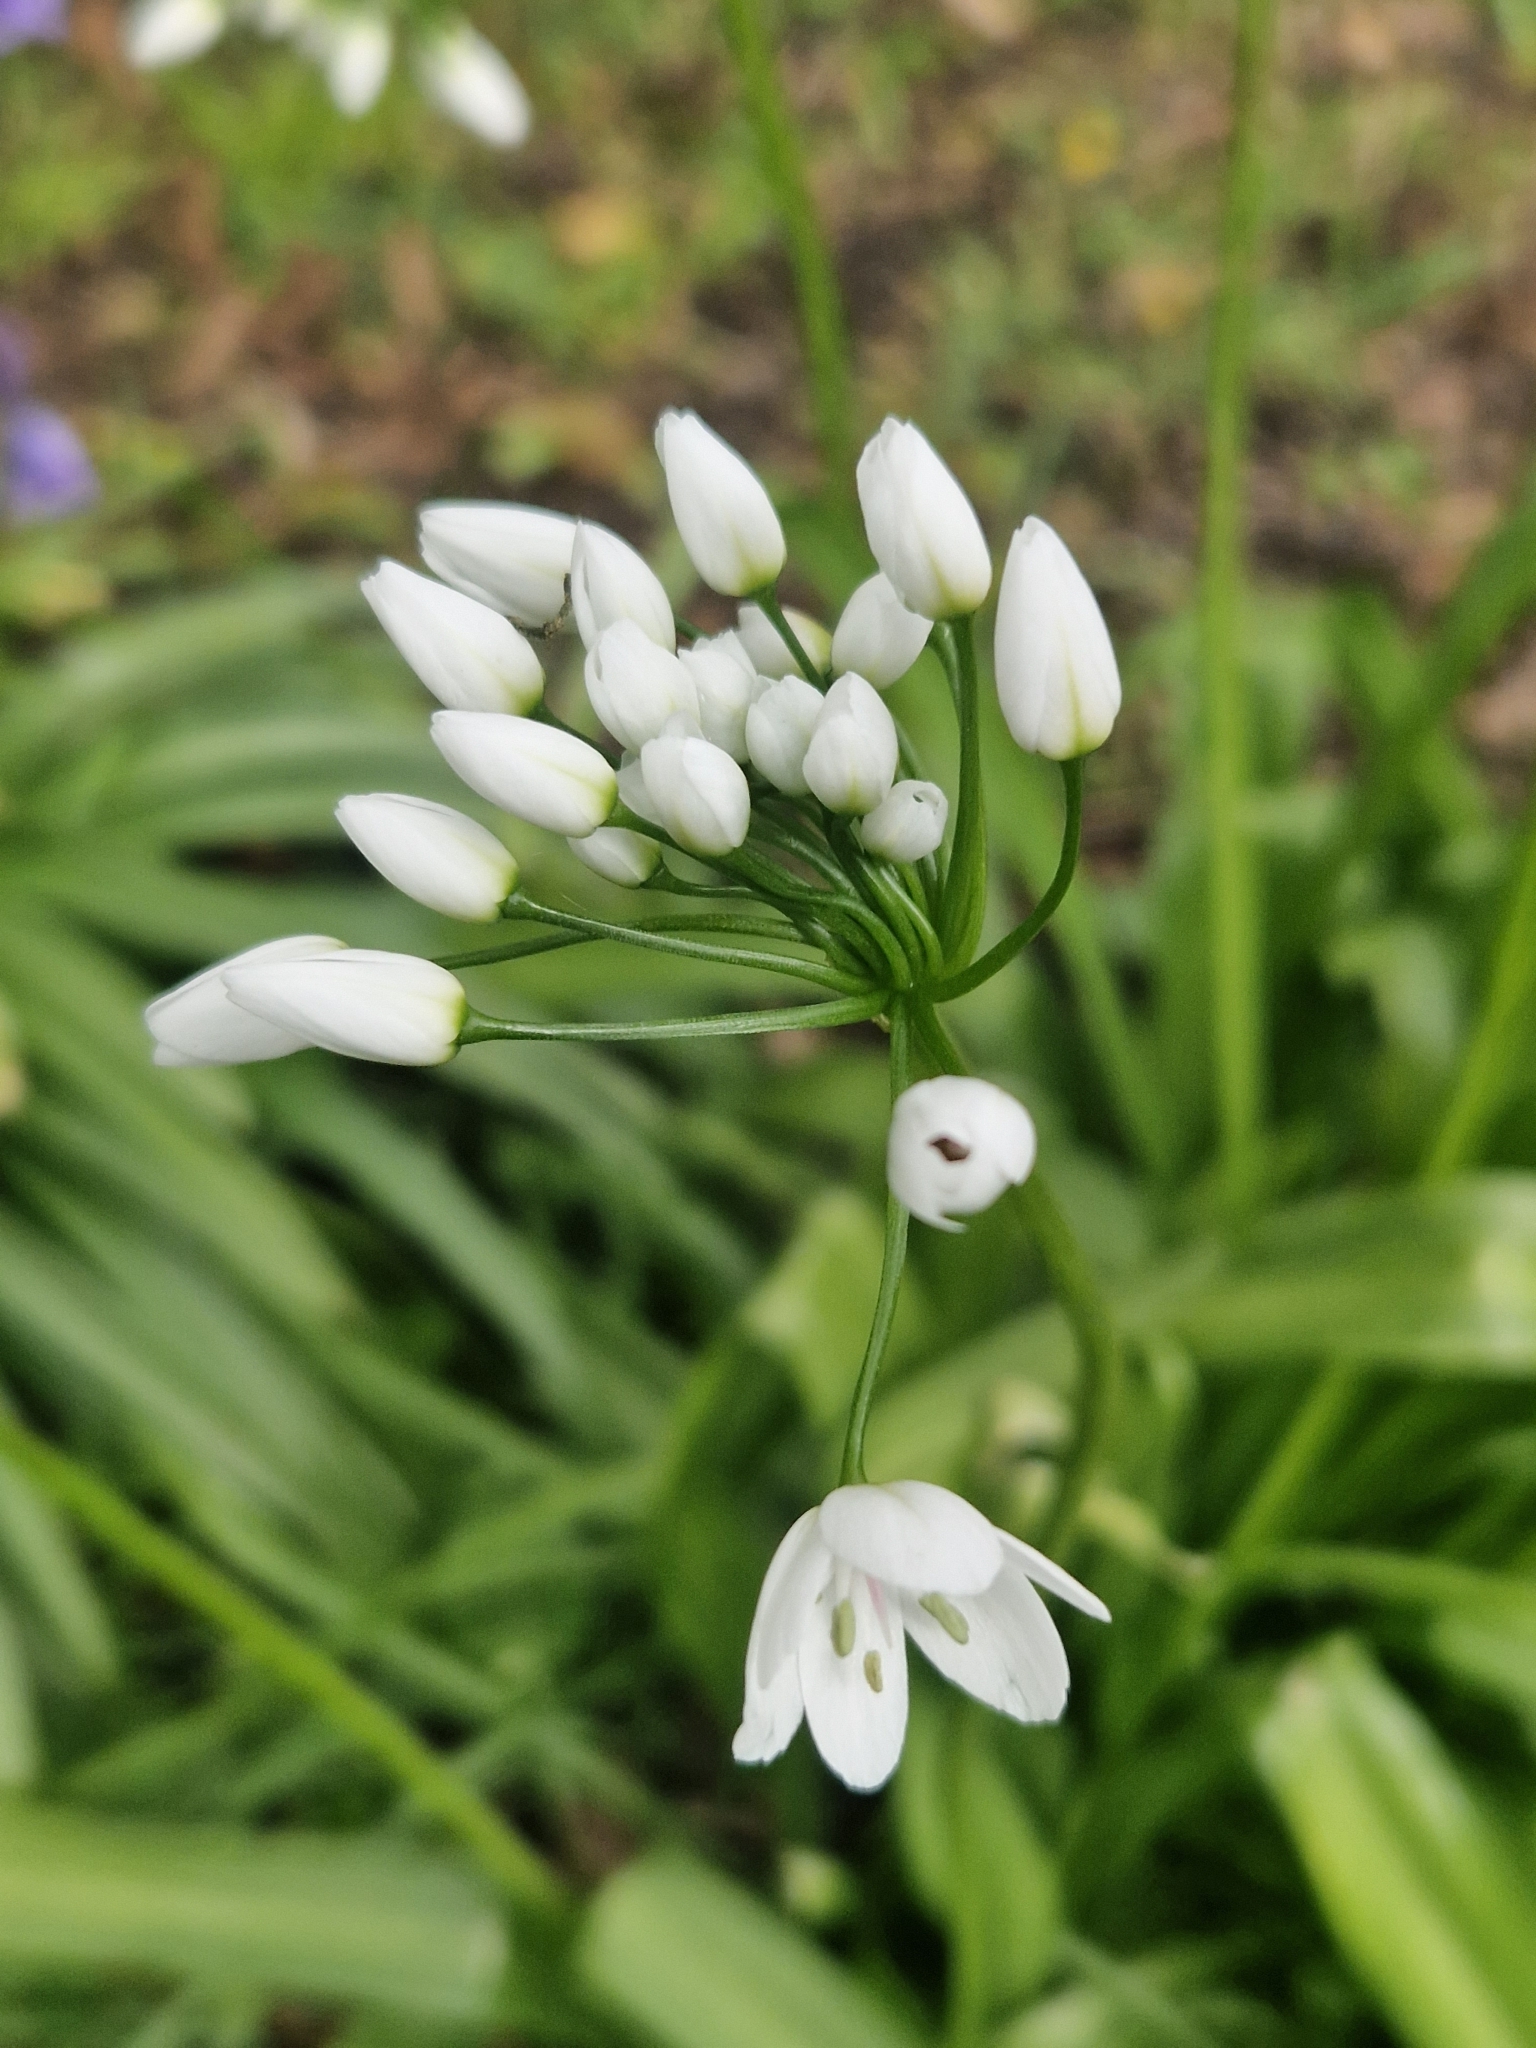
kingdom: Plantae
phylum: Tracheophyta
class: Liliopsida
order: Asparagales
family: Amaryllidaceae
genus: Allium
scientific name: Allium neapolitanum
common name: Neapolitan garlic
